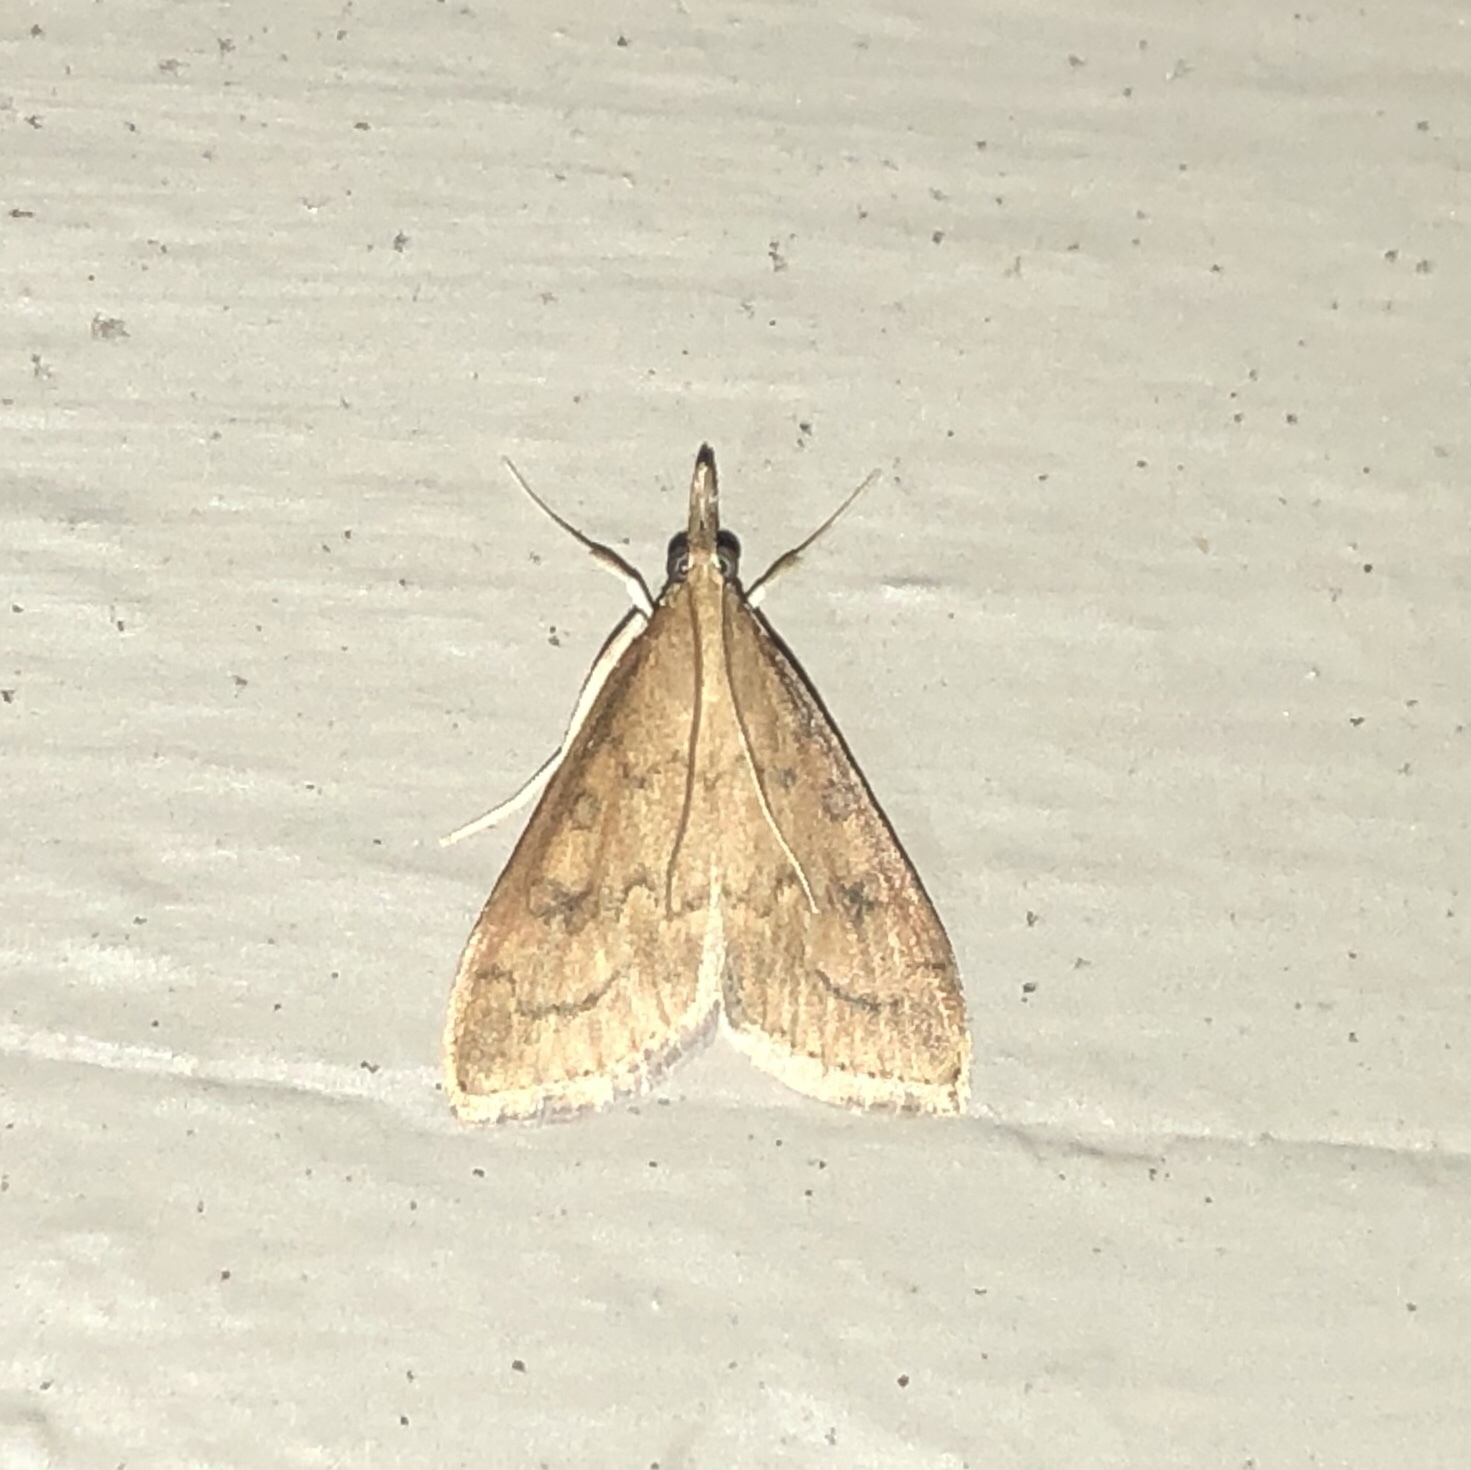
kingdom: Animalia
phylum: Arthropoda
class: Insecta
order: Lepidoptera
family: Crambidae
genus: Udea
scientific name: Udea rubigalis
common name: Celery leaftier moth
